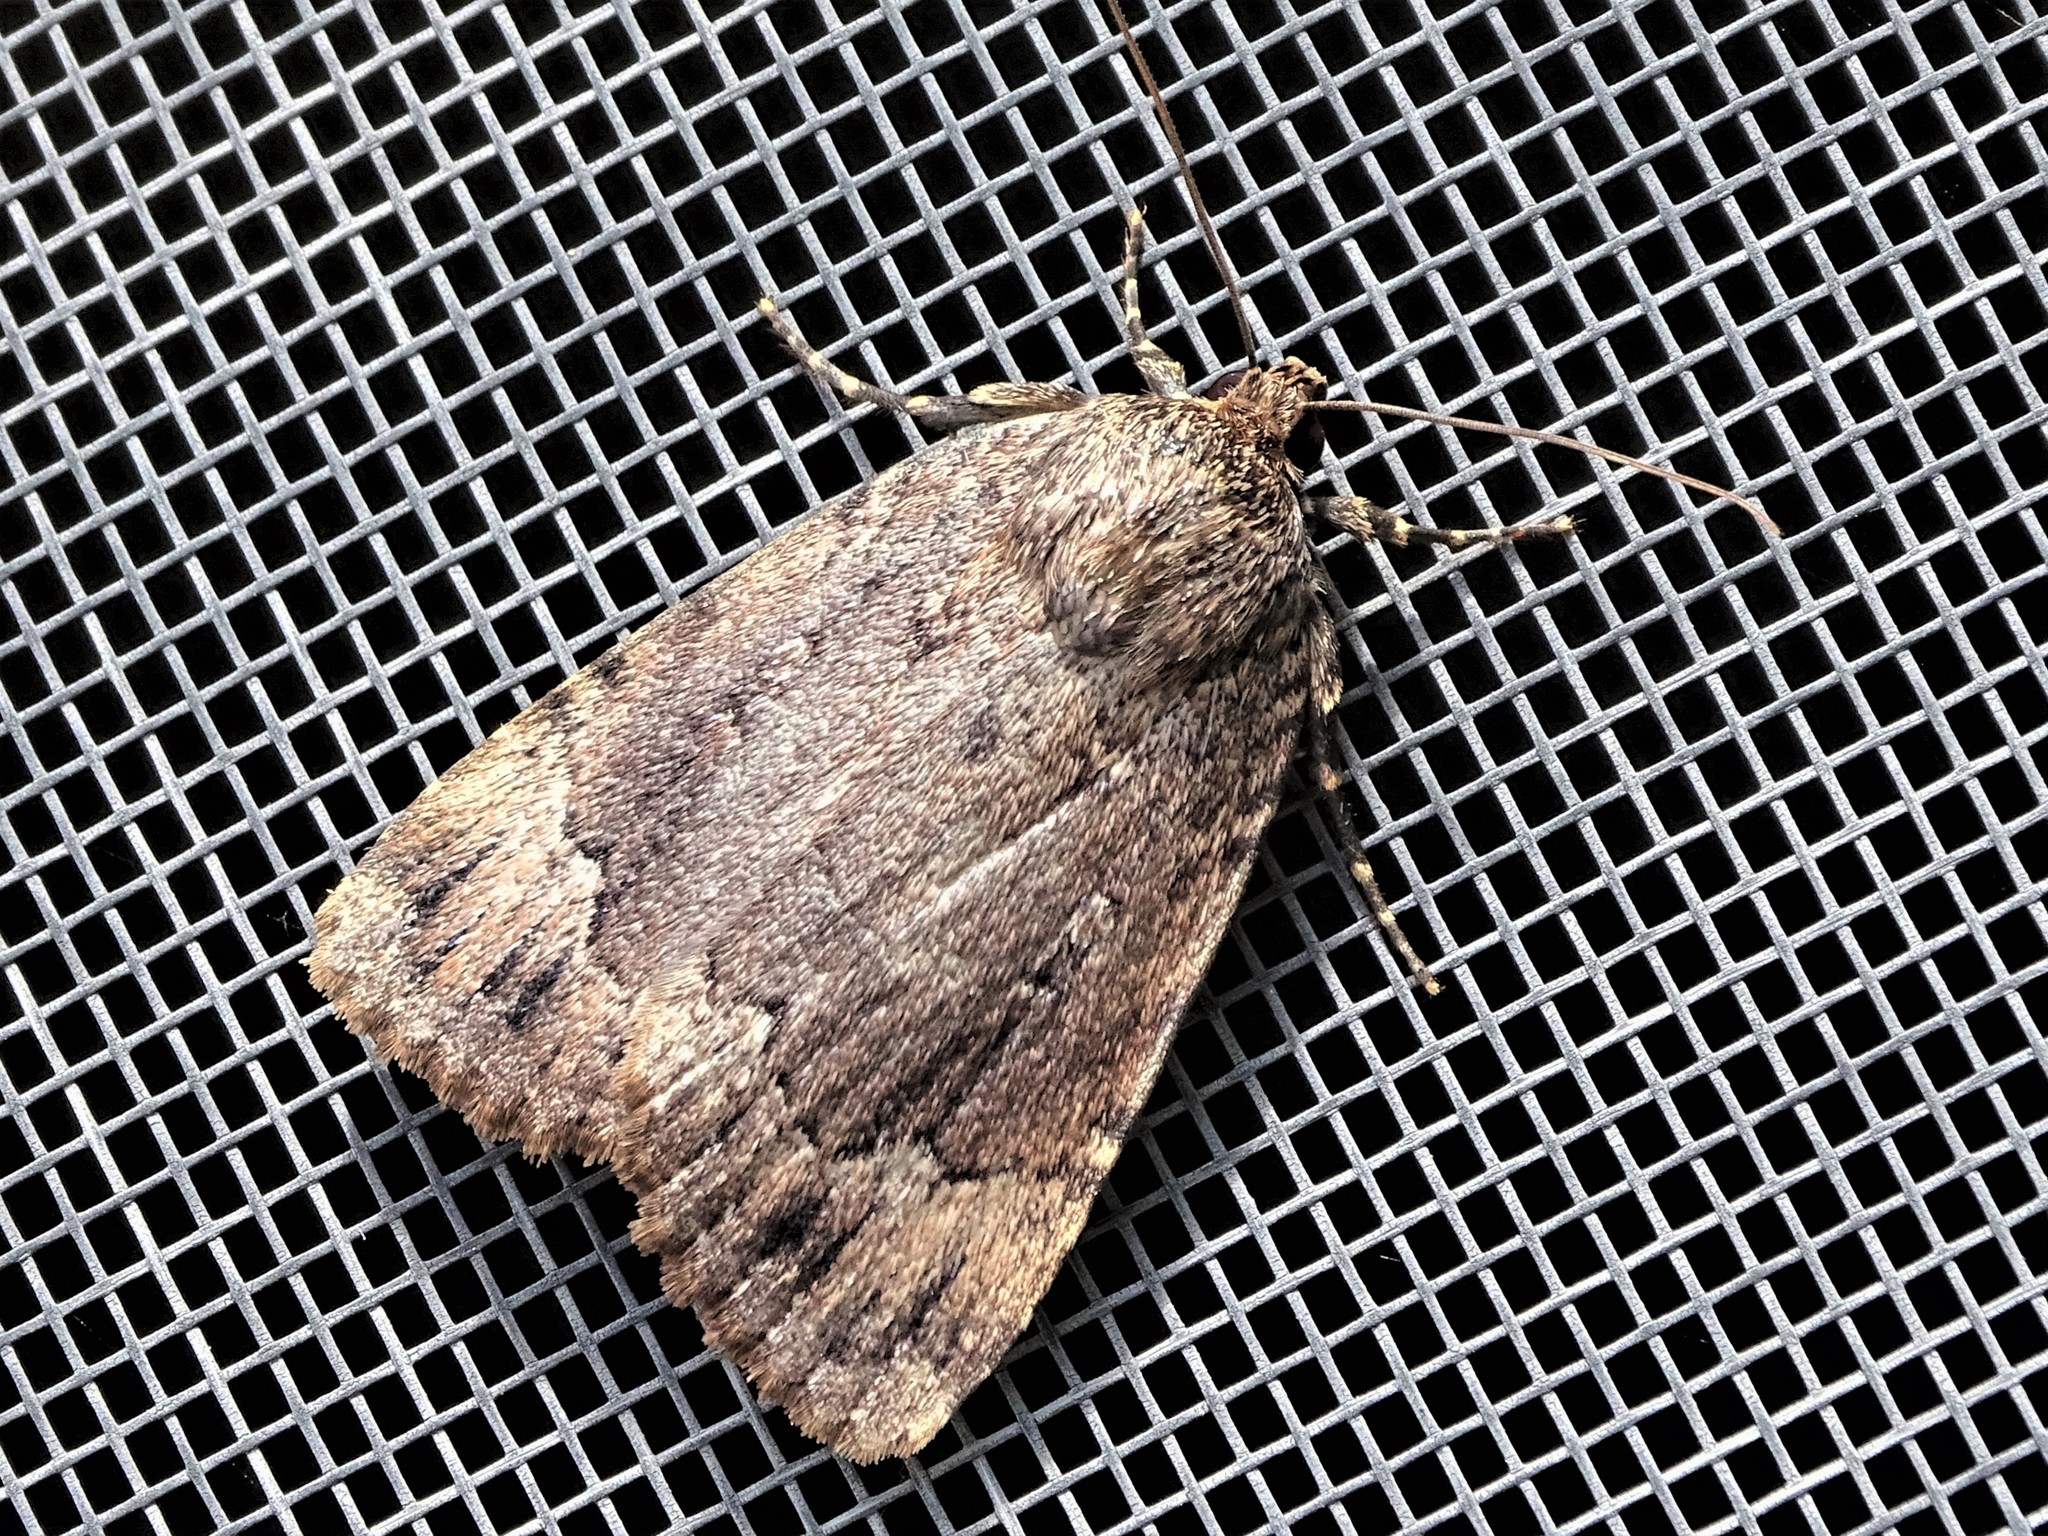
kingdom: Animalia
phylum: Arthropoda
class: Insecta
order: Lepidoptera
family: Noctuidae
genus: Amphipyra
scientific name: Amphipyra pyramidoides
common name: American copper underwing
